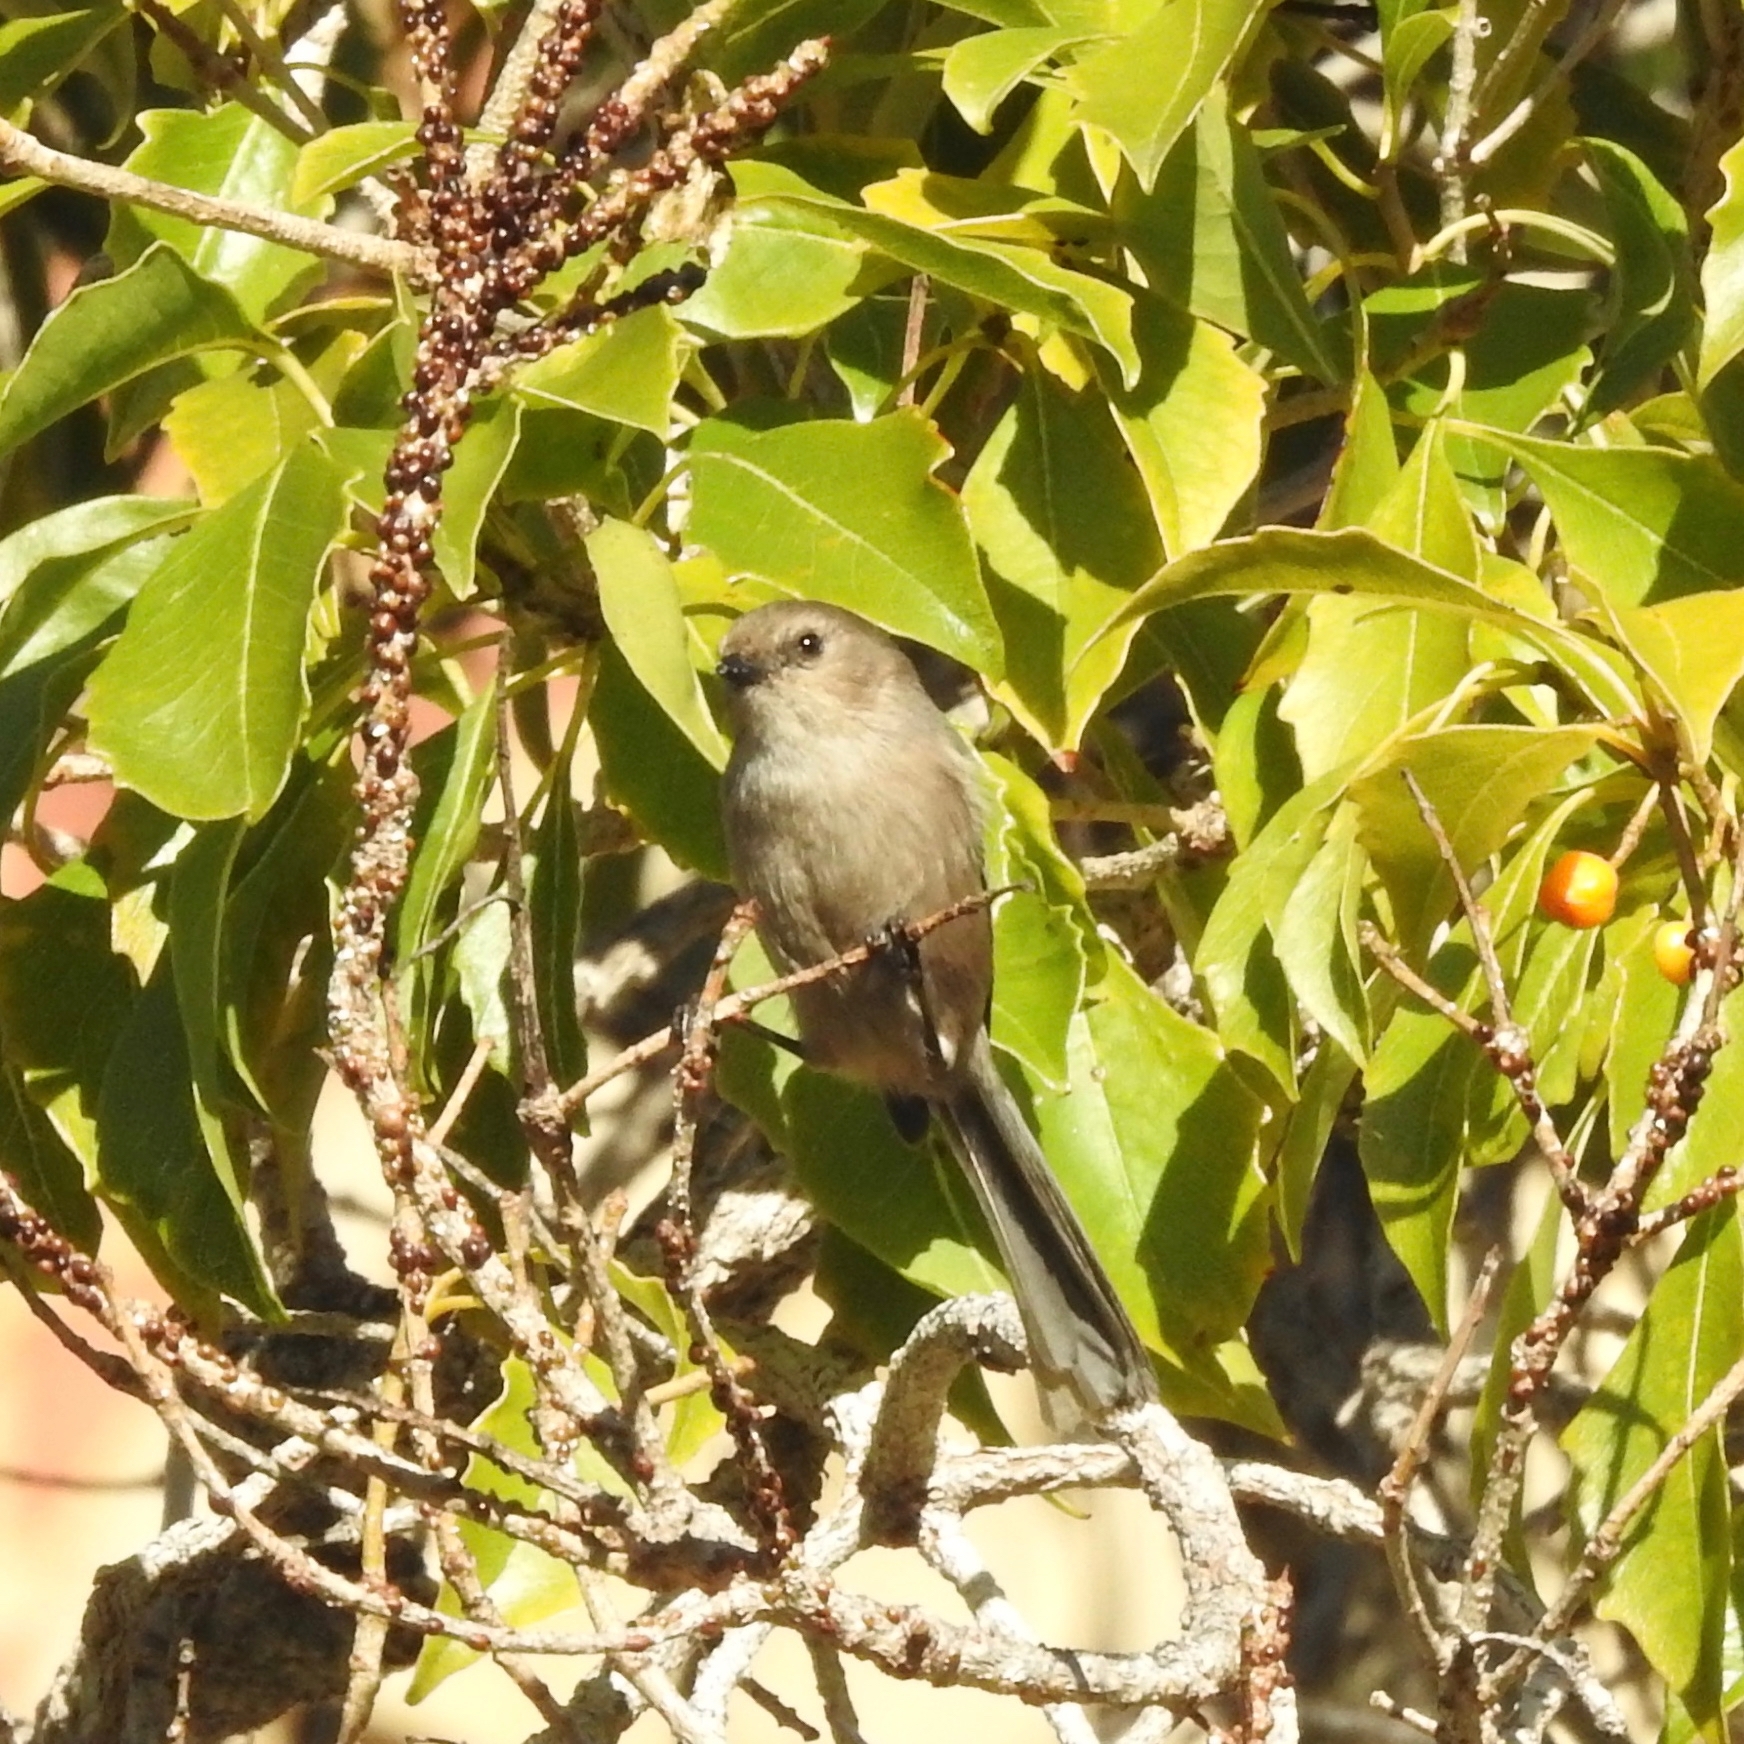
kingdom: Animalia
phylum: Chordata
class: Aves
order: Passeriformes
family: Aegithalidae
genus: Psaltriparus
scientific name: Psaltriparus minimus
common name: American bushtit
